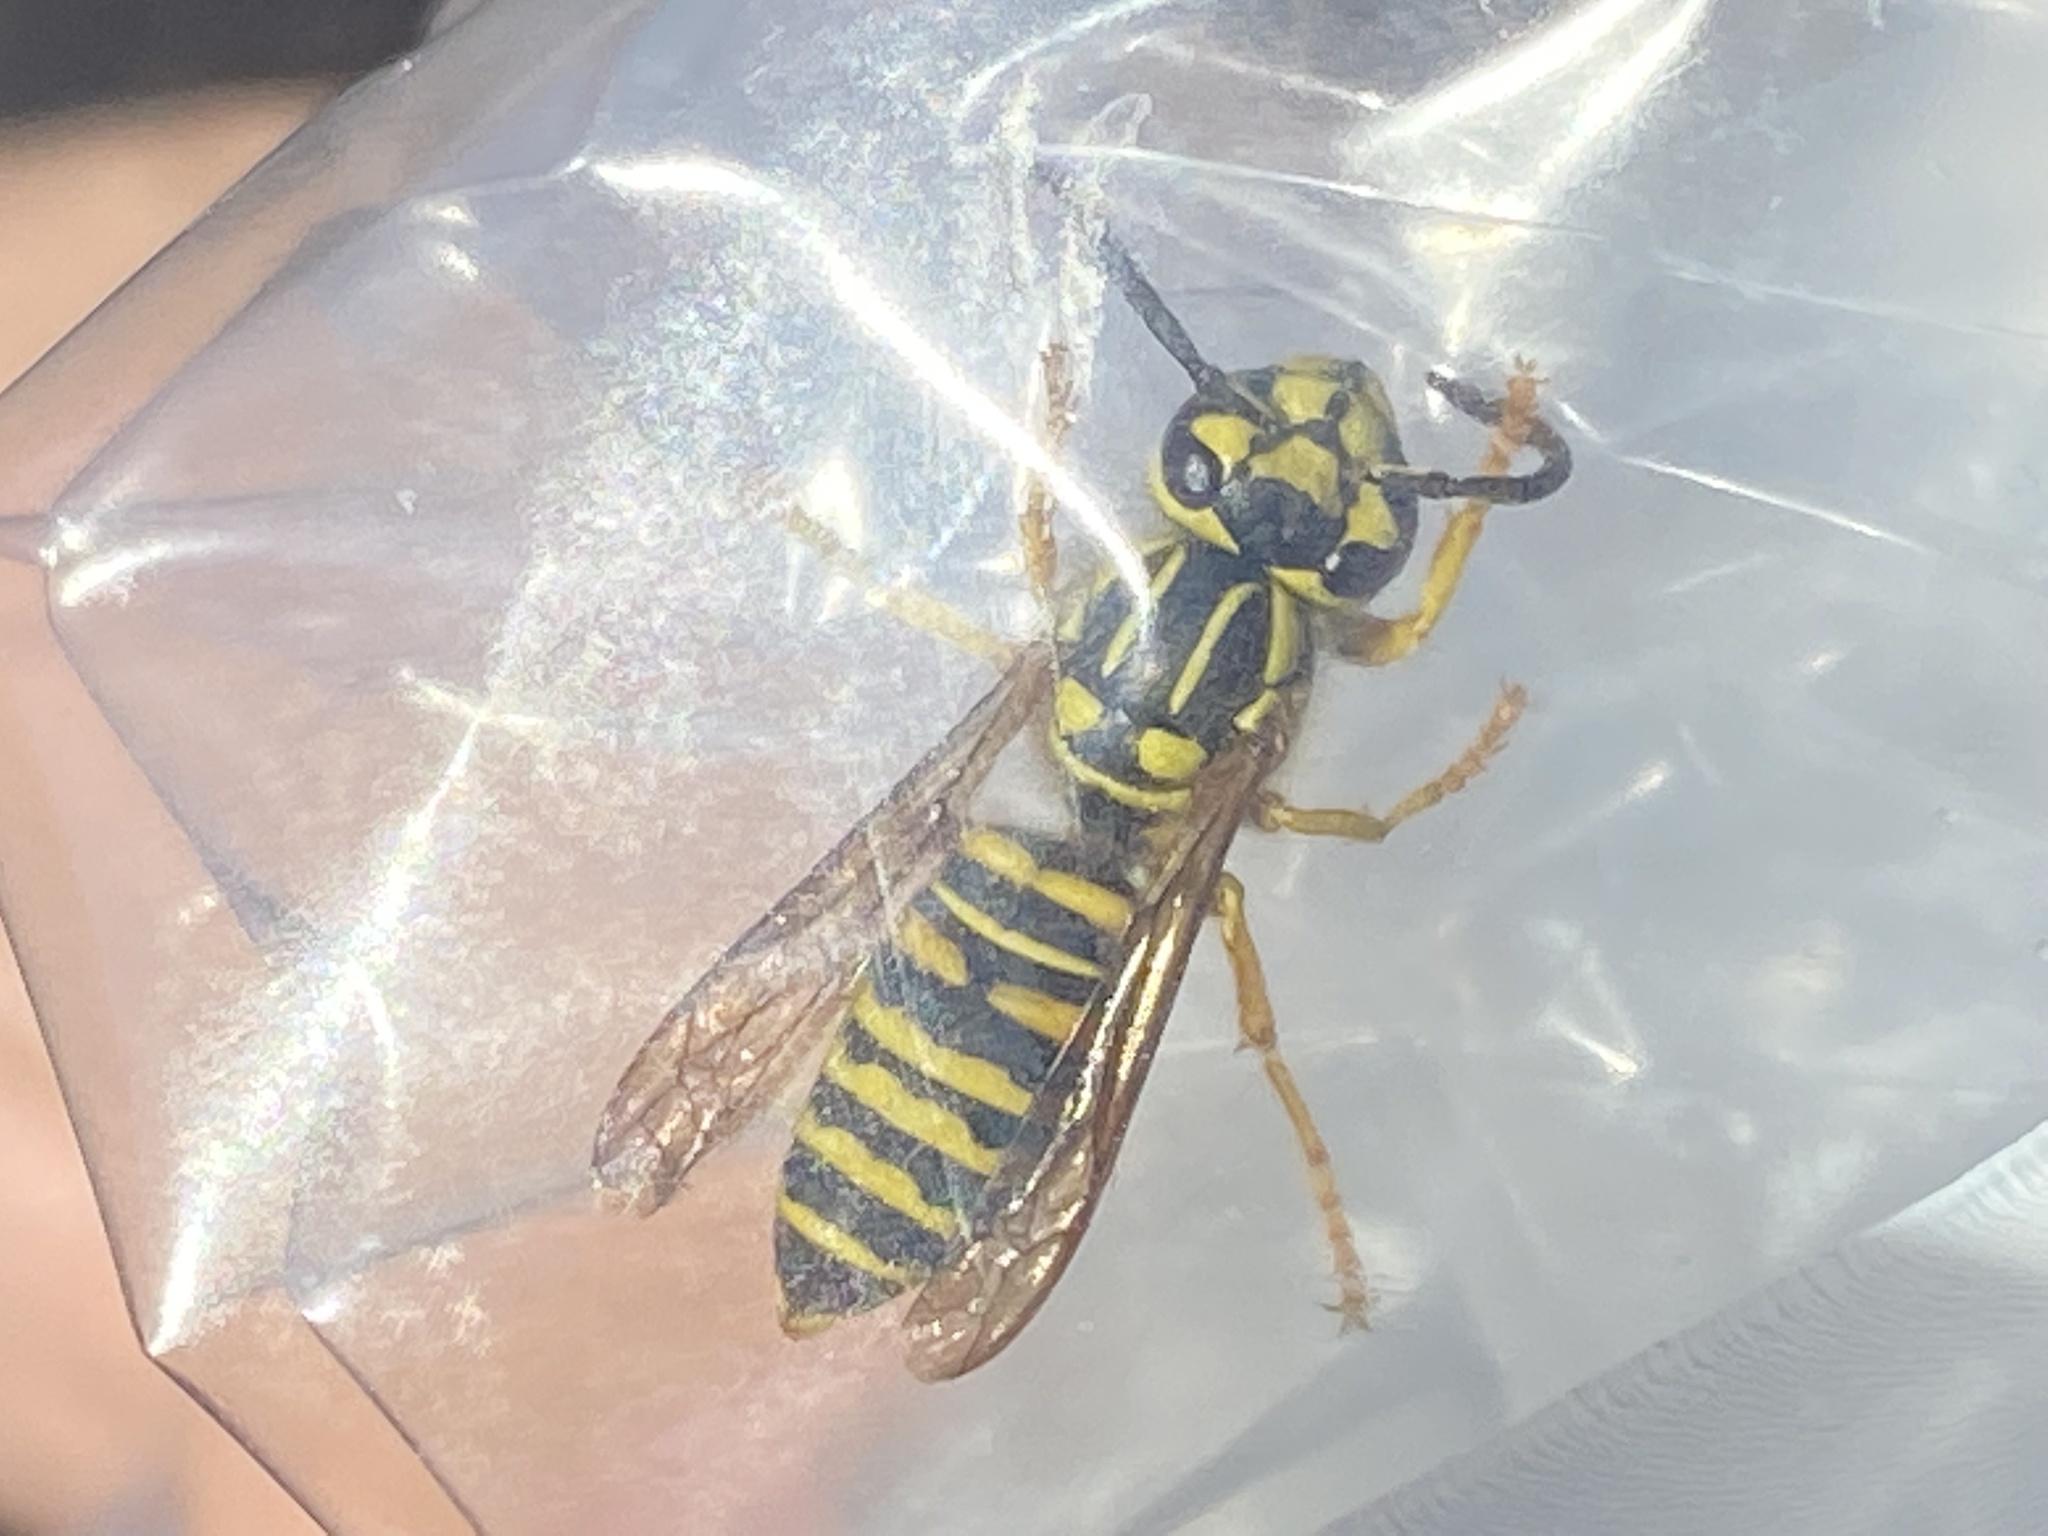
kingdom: Animalia
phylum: Arthropoda
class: Insecta
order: Hymenoptera
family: Vespidae
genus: Vespula
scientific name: Vespula squamosa
